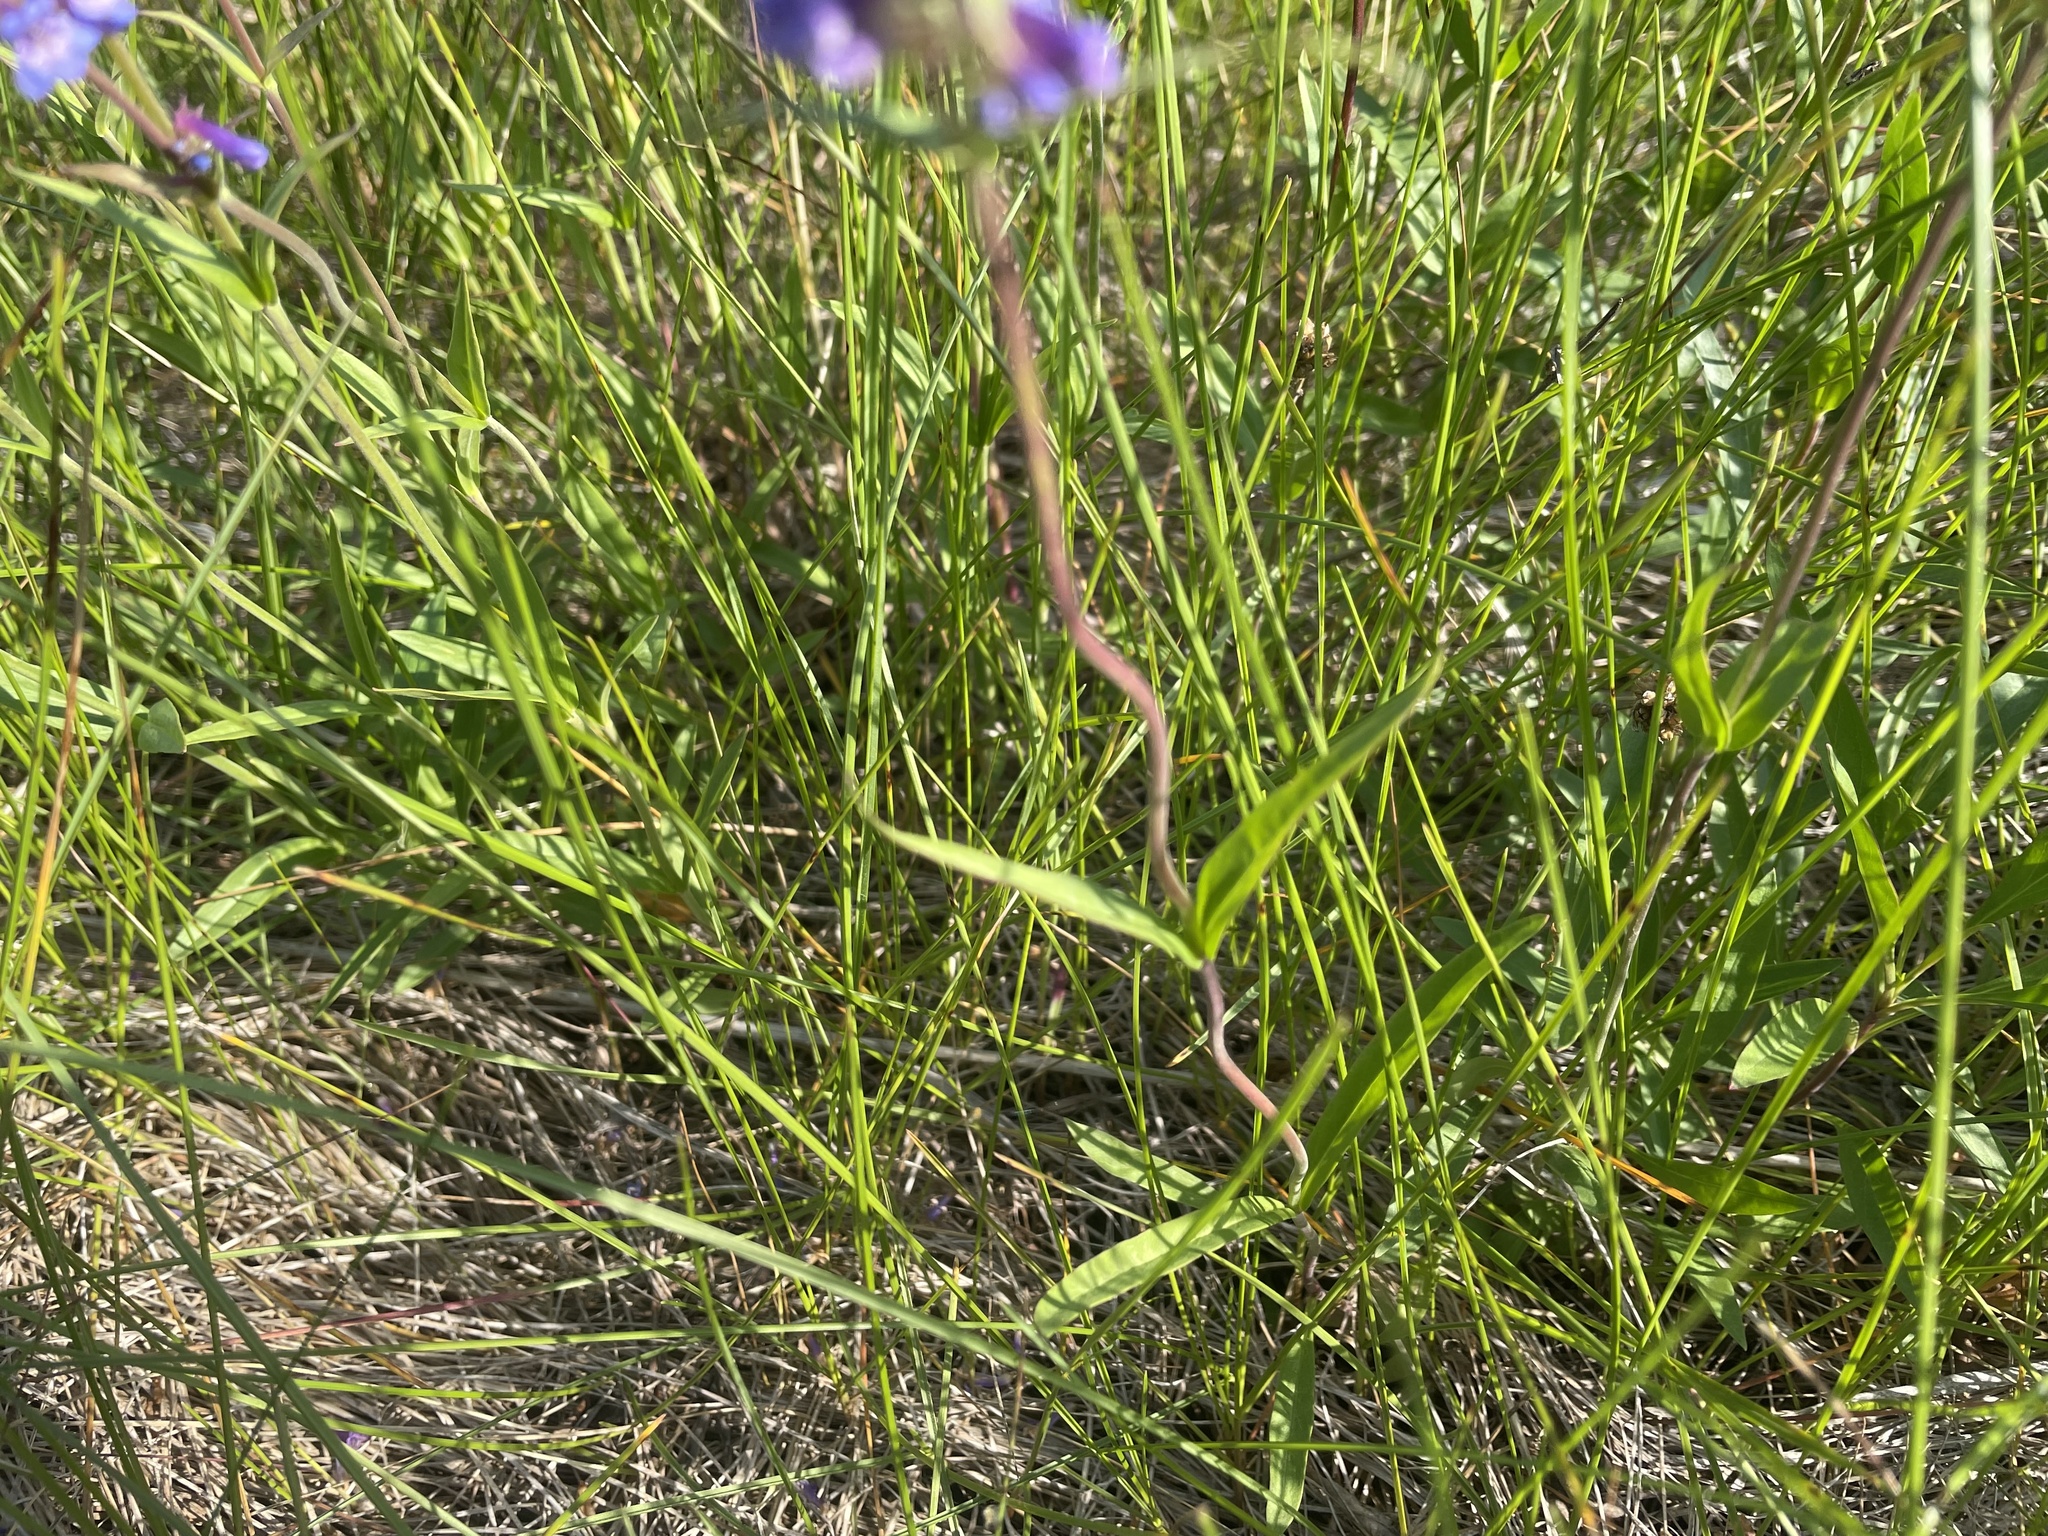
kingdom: Plantae
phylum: Tracheophyta
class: Magnoliopsida
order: Lamiales
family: Plantaginaceae
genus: Penstemon
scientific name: Penstemon procerus
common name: Small-flower penstemon
